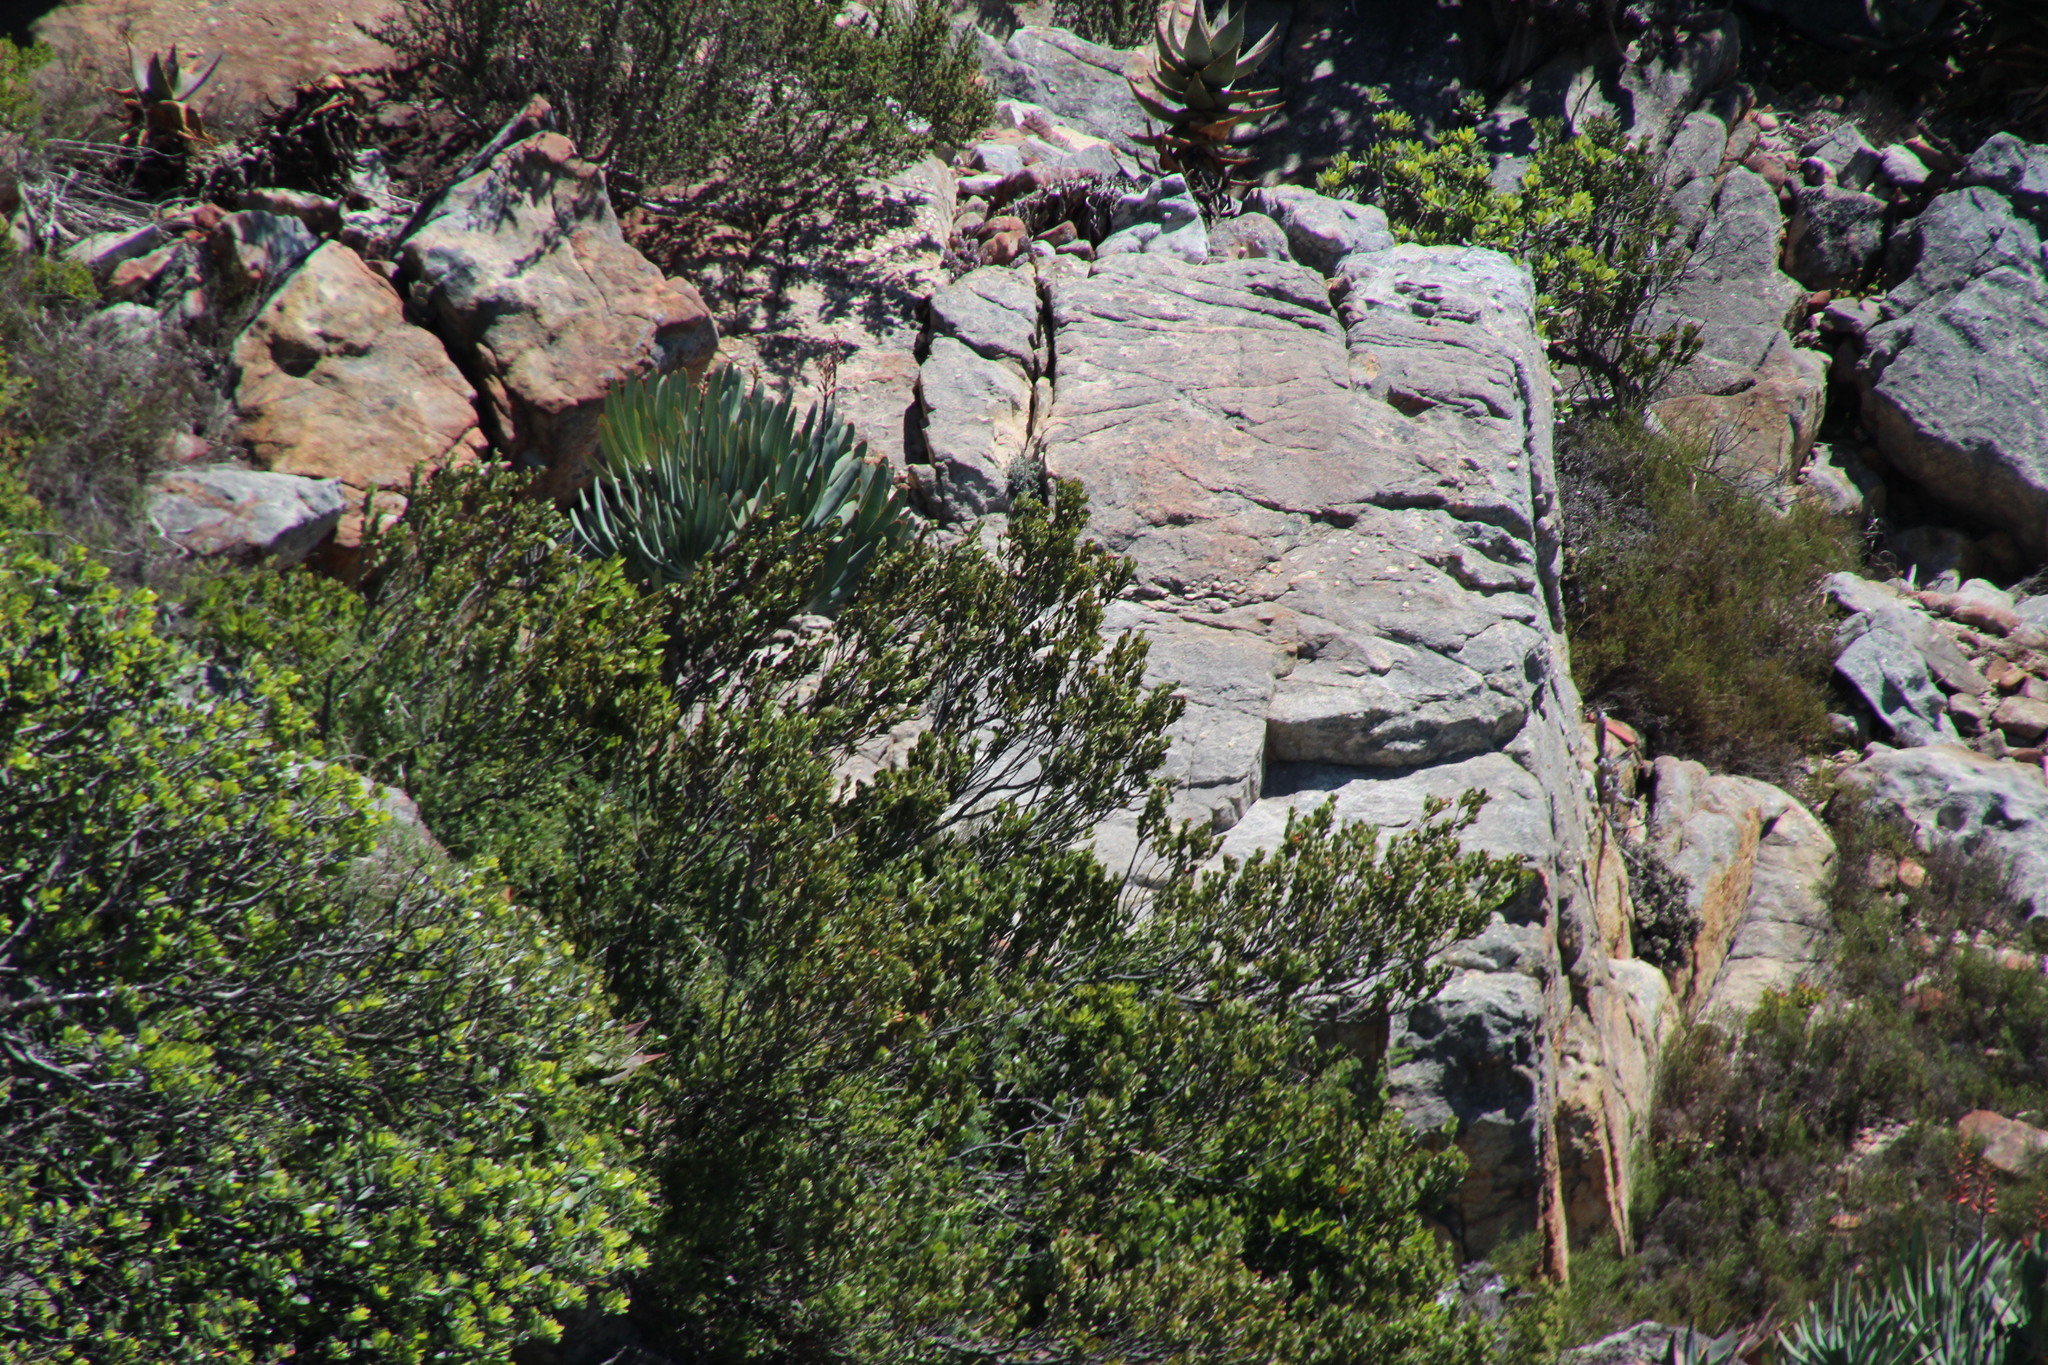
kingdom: Plantae
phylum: Tracheophyta
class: Liliopsida
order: Asparagales
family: Asphodelaceae
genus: Kumara
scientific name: Kumara plicatilis
